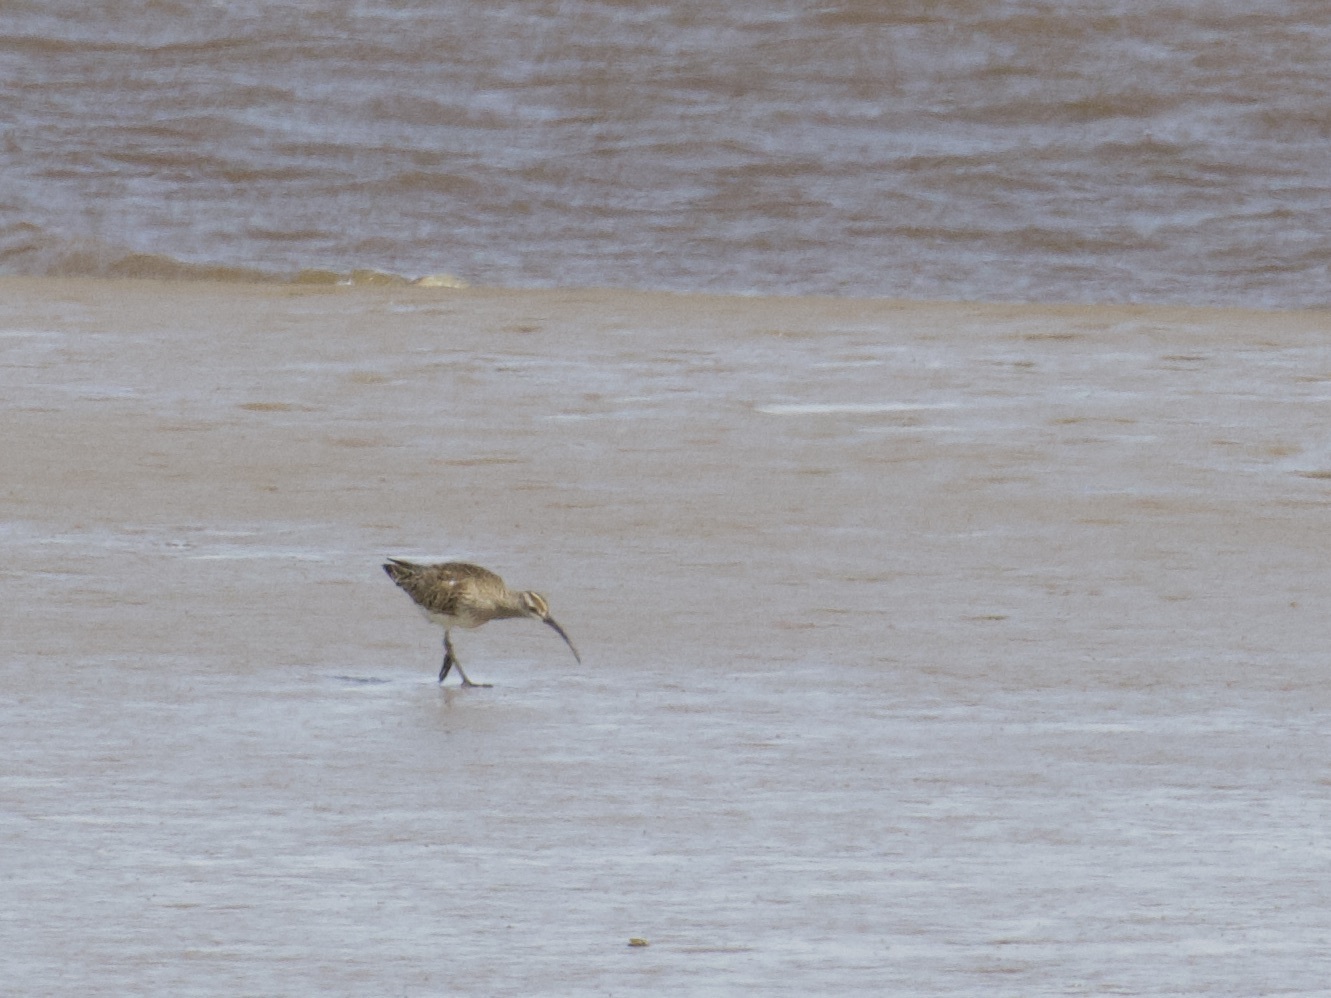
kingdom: Animalia
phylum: Chordata
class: Aves
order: Charadriiformes
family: Scolopacidae
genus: Numenius
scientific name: Numenius phaeopus
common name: Whimbrel
